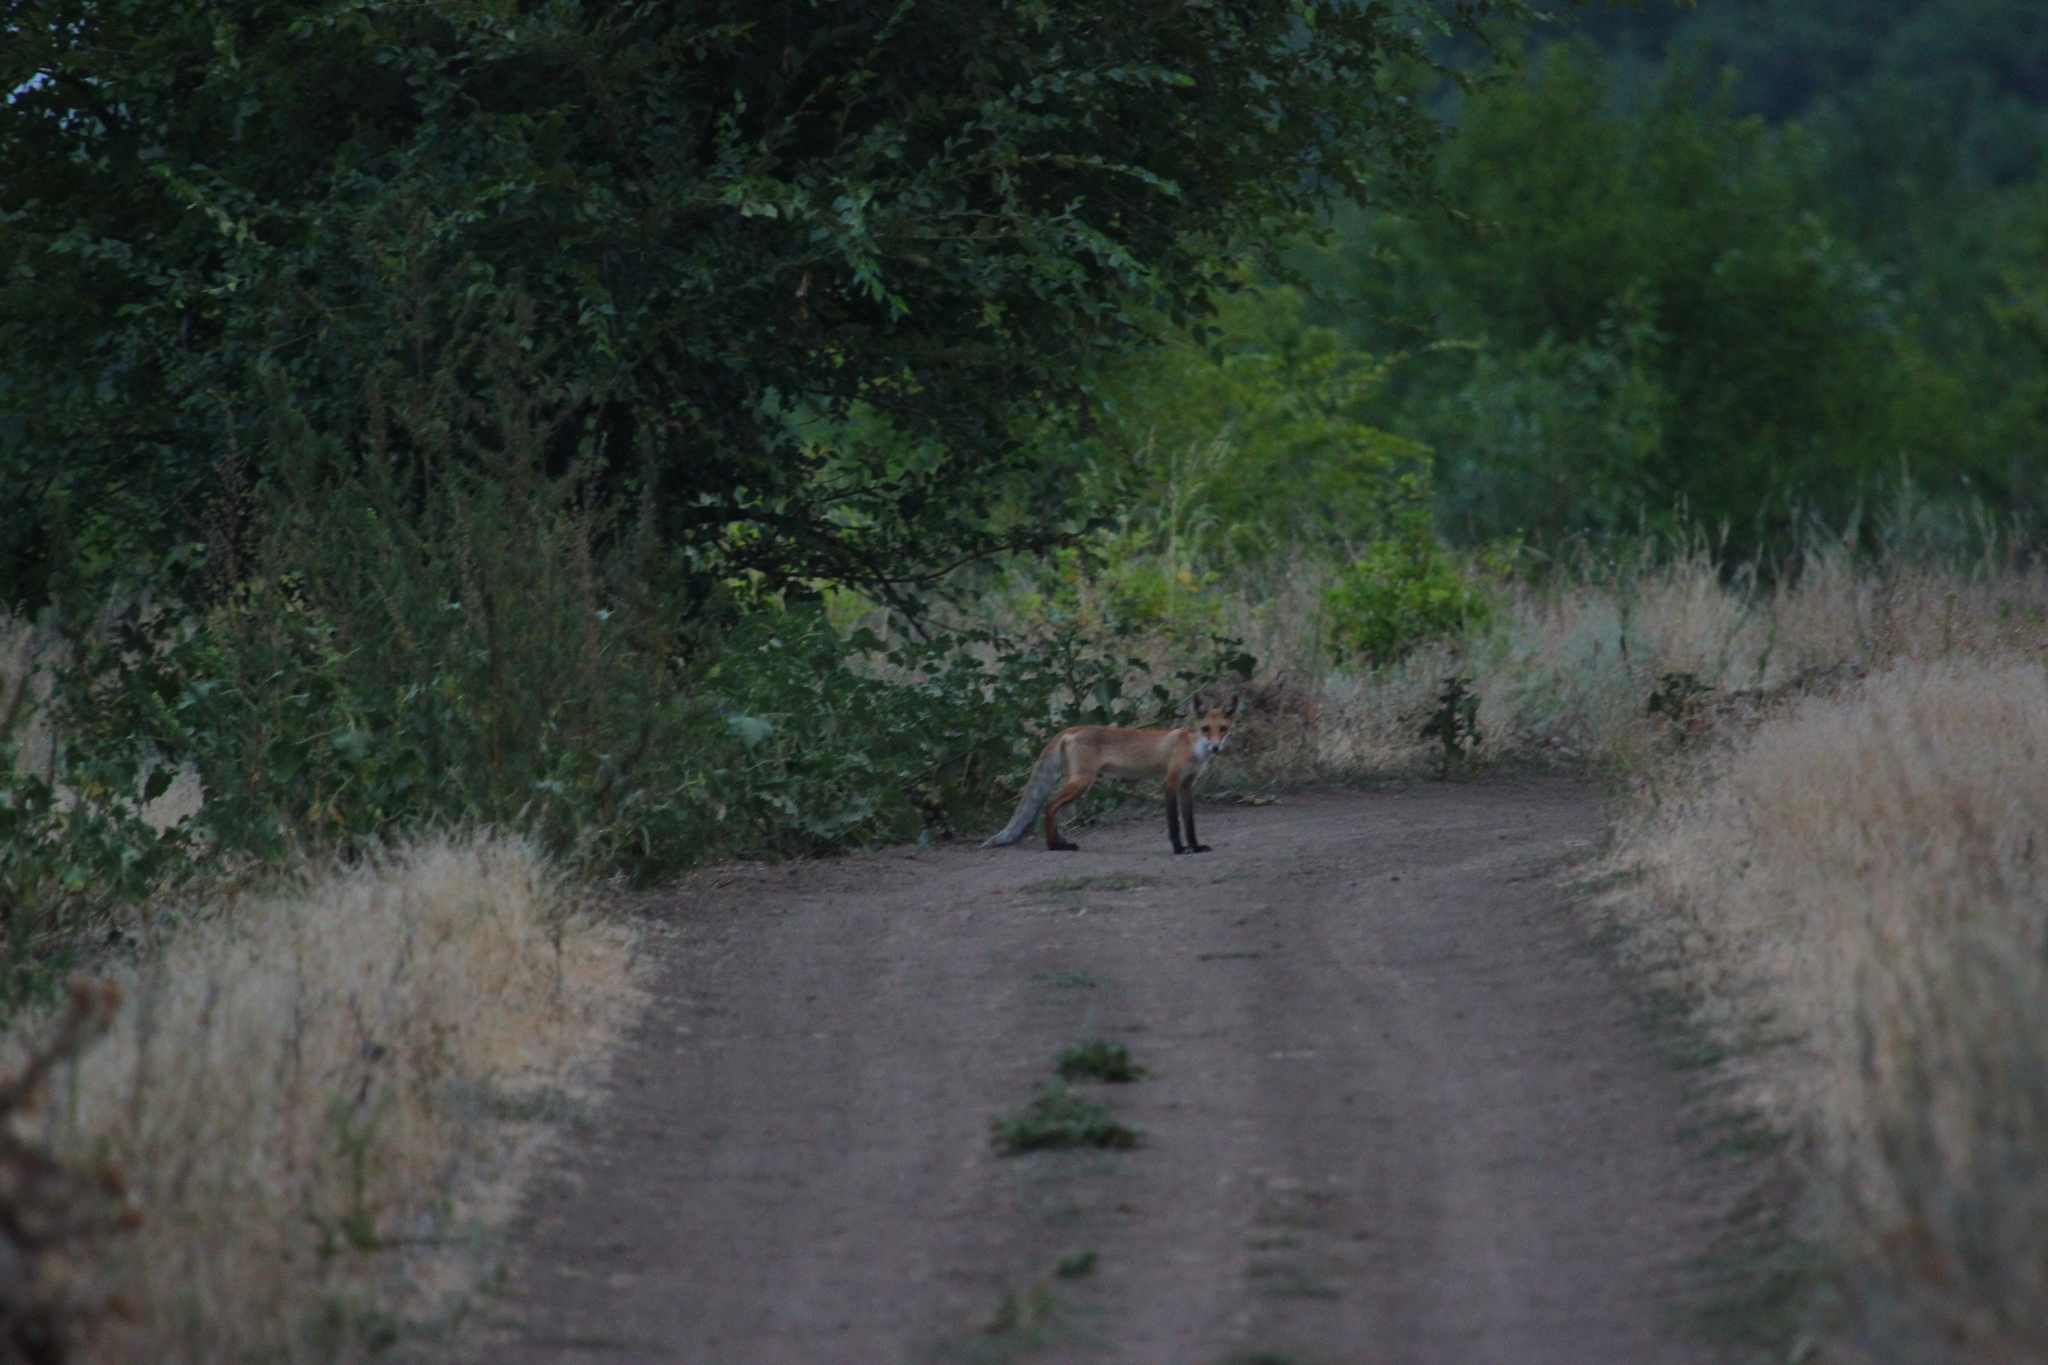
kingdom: Animalia
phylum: Chordata
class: Mammalia
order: Carnivora
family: Canidae
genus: Vulpes
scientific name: Vulpes vulpes
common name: Red fox
